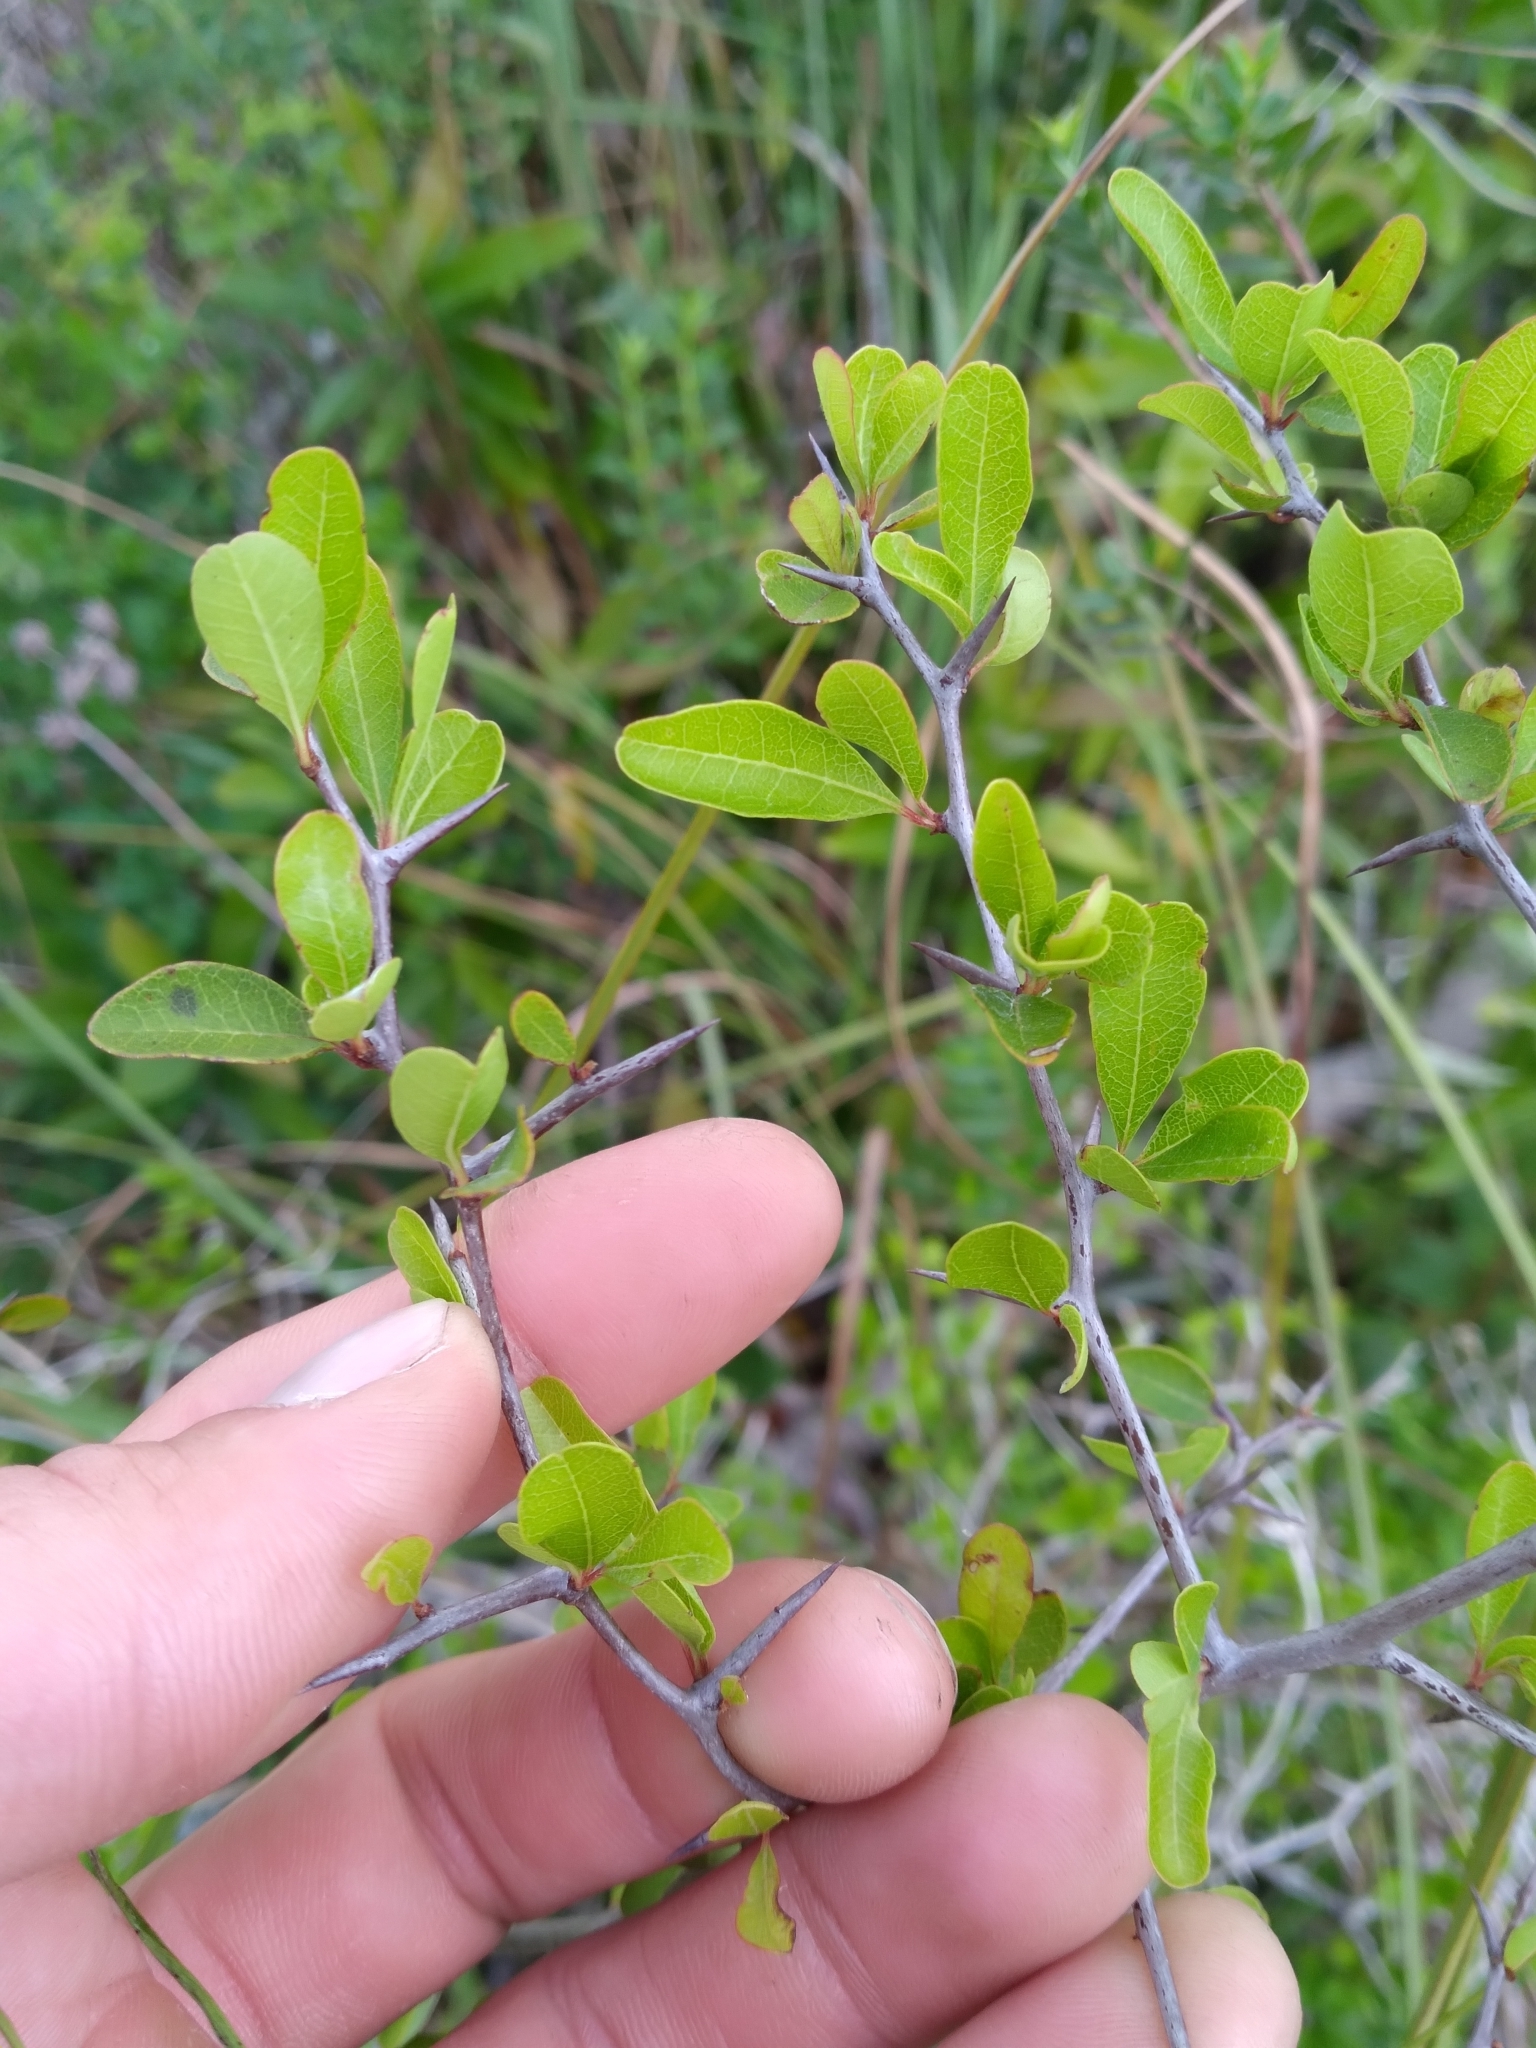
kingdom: Plantae
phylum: Tracheophyta
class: Magnoliopsida
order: Ericales
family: Sapotaceae
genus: Sideroxylon
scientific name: Sideroxylon reclinatum
